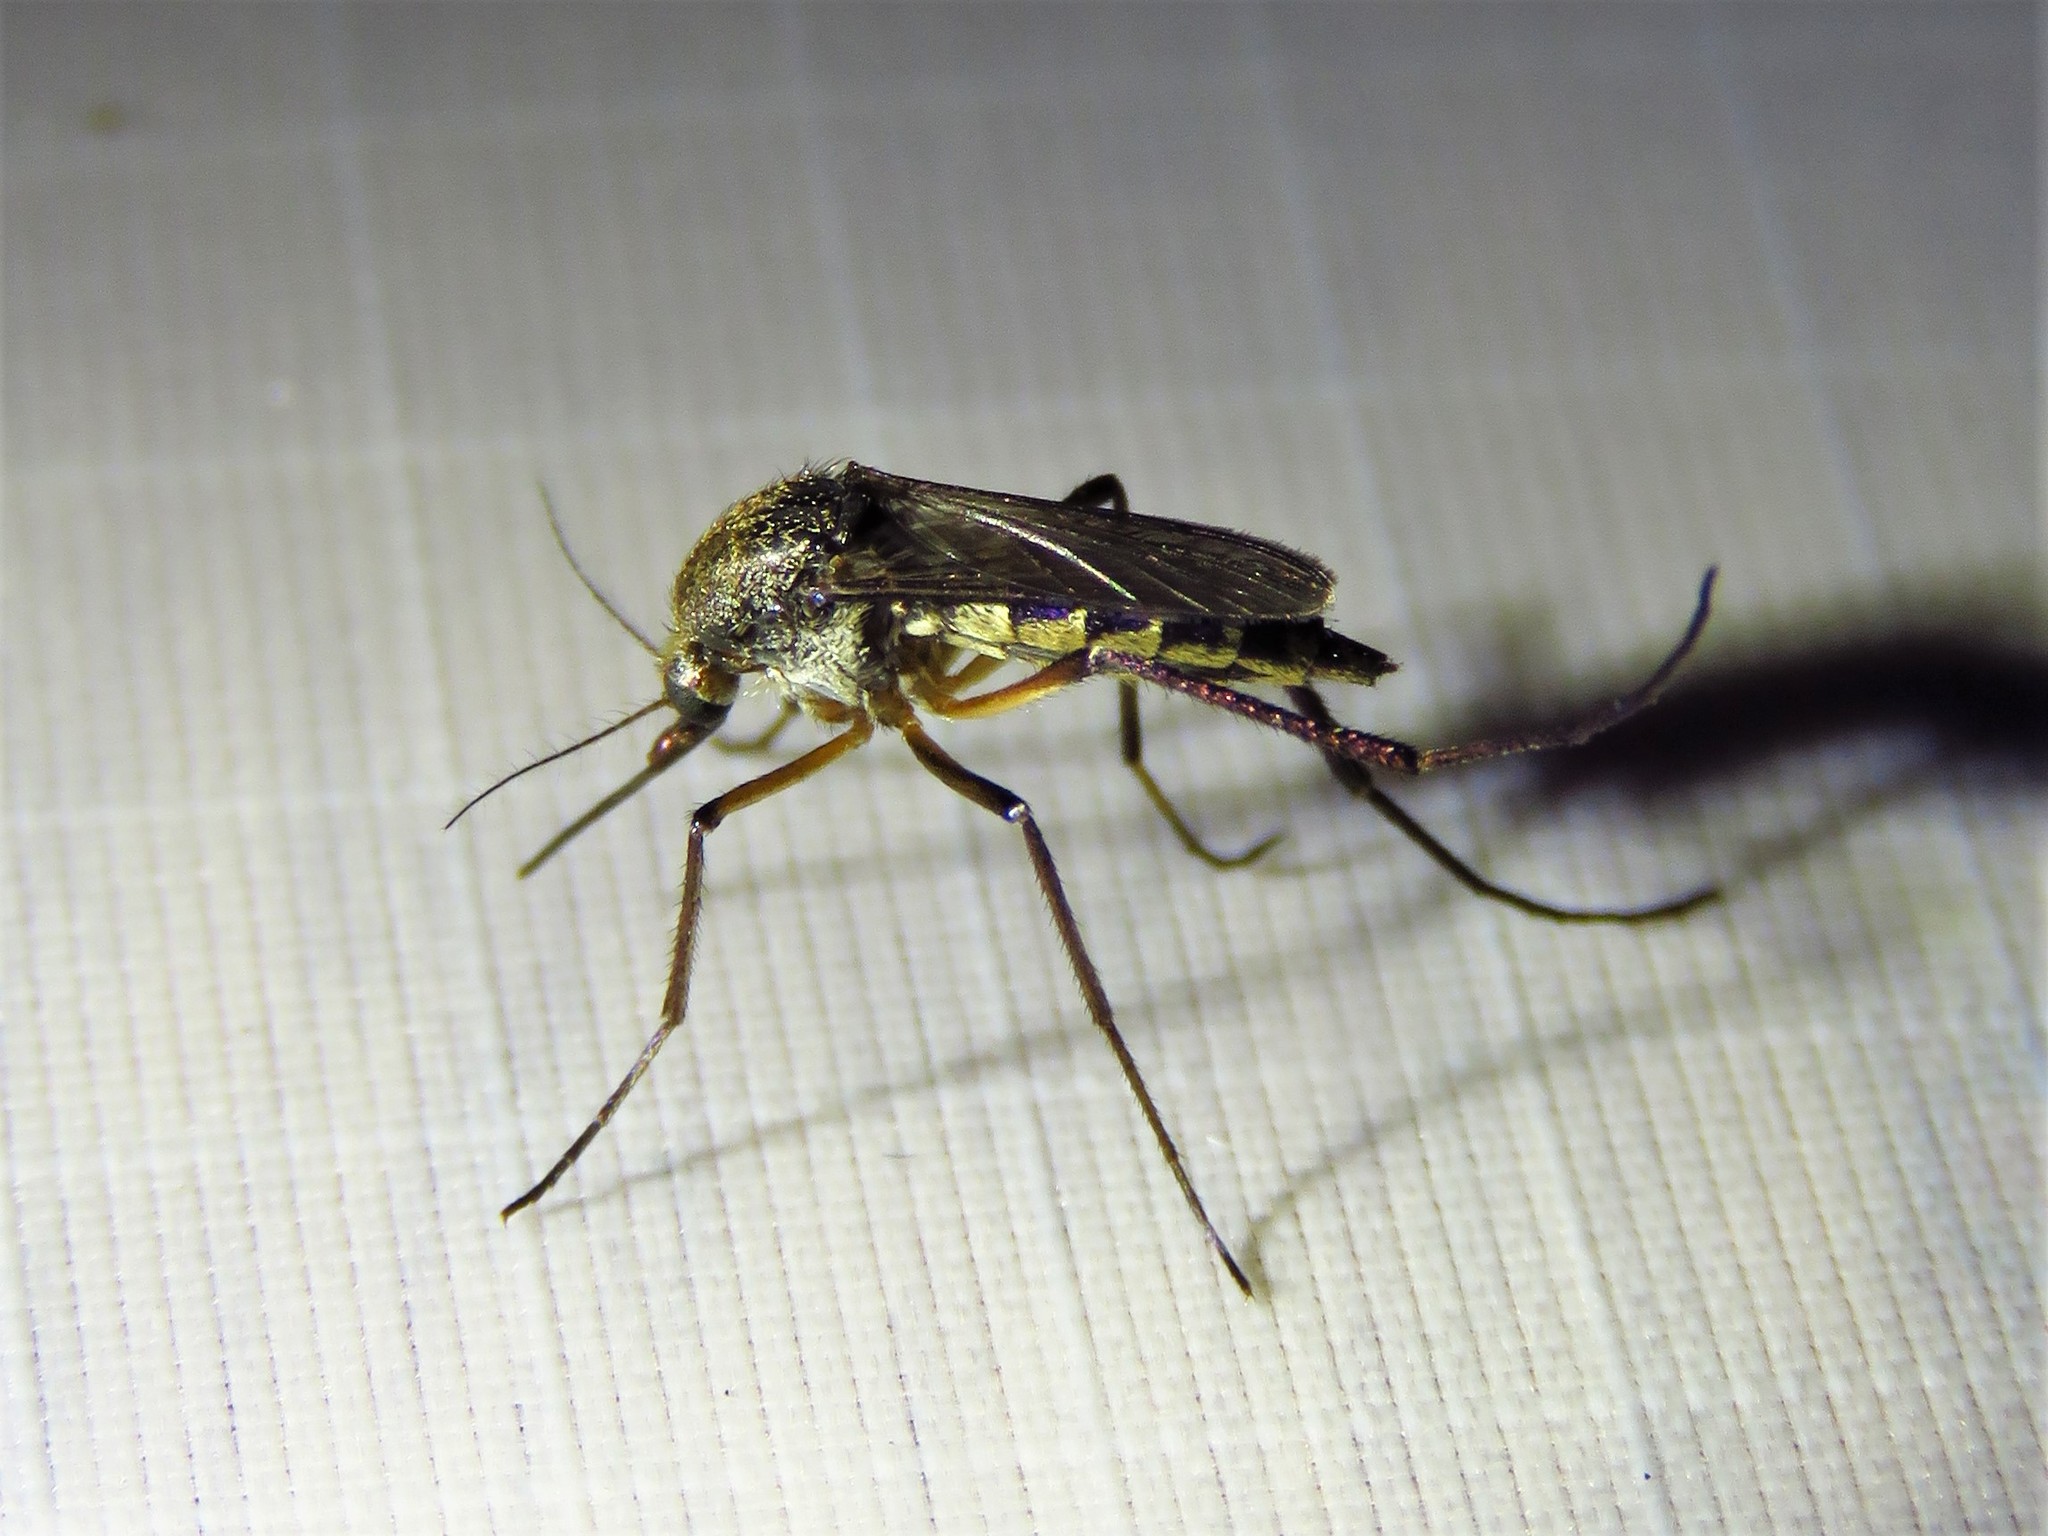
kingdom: Animalia
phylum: Arthropoda
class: Insecta
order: Diptera
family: Culicidae
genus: Psorophora
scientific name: Psorophora cyanescens
